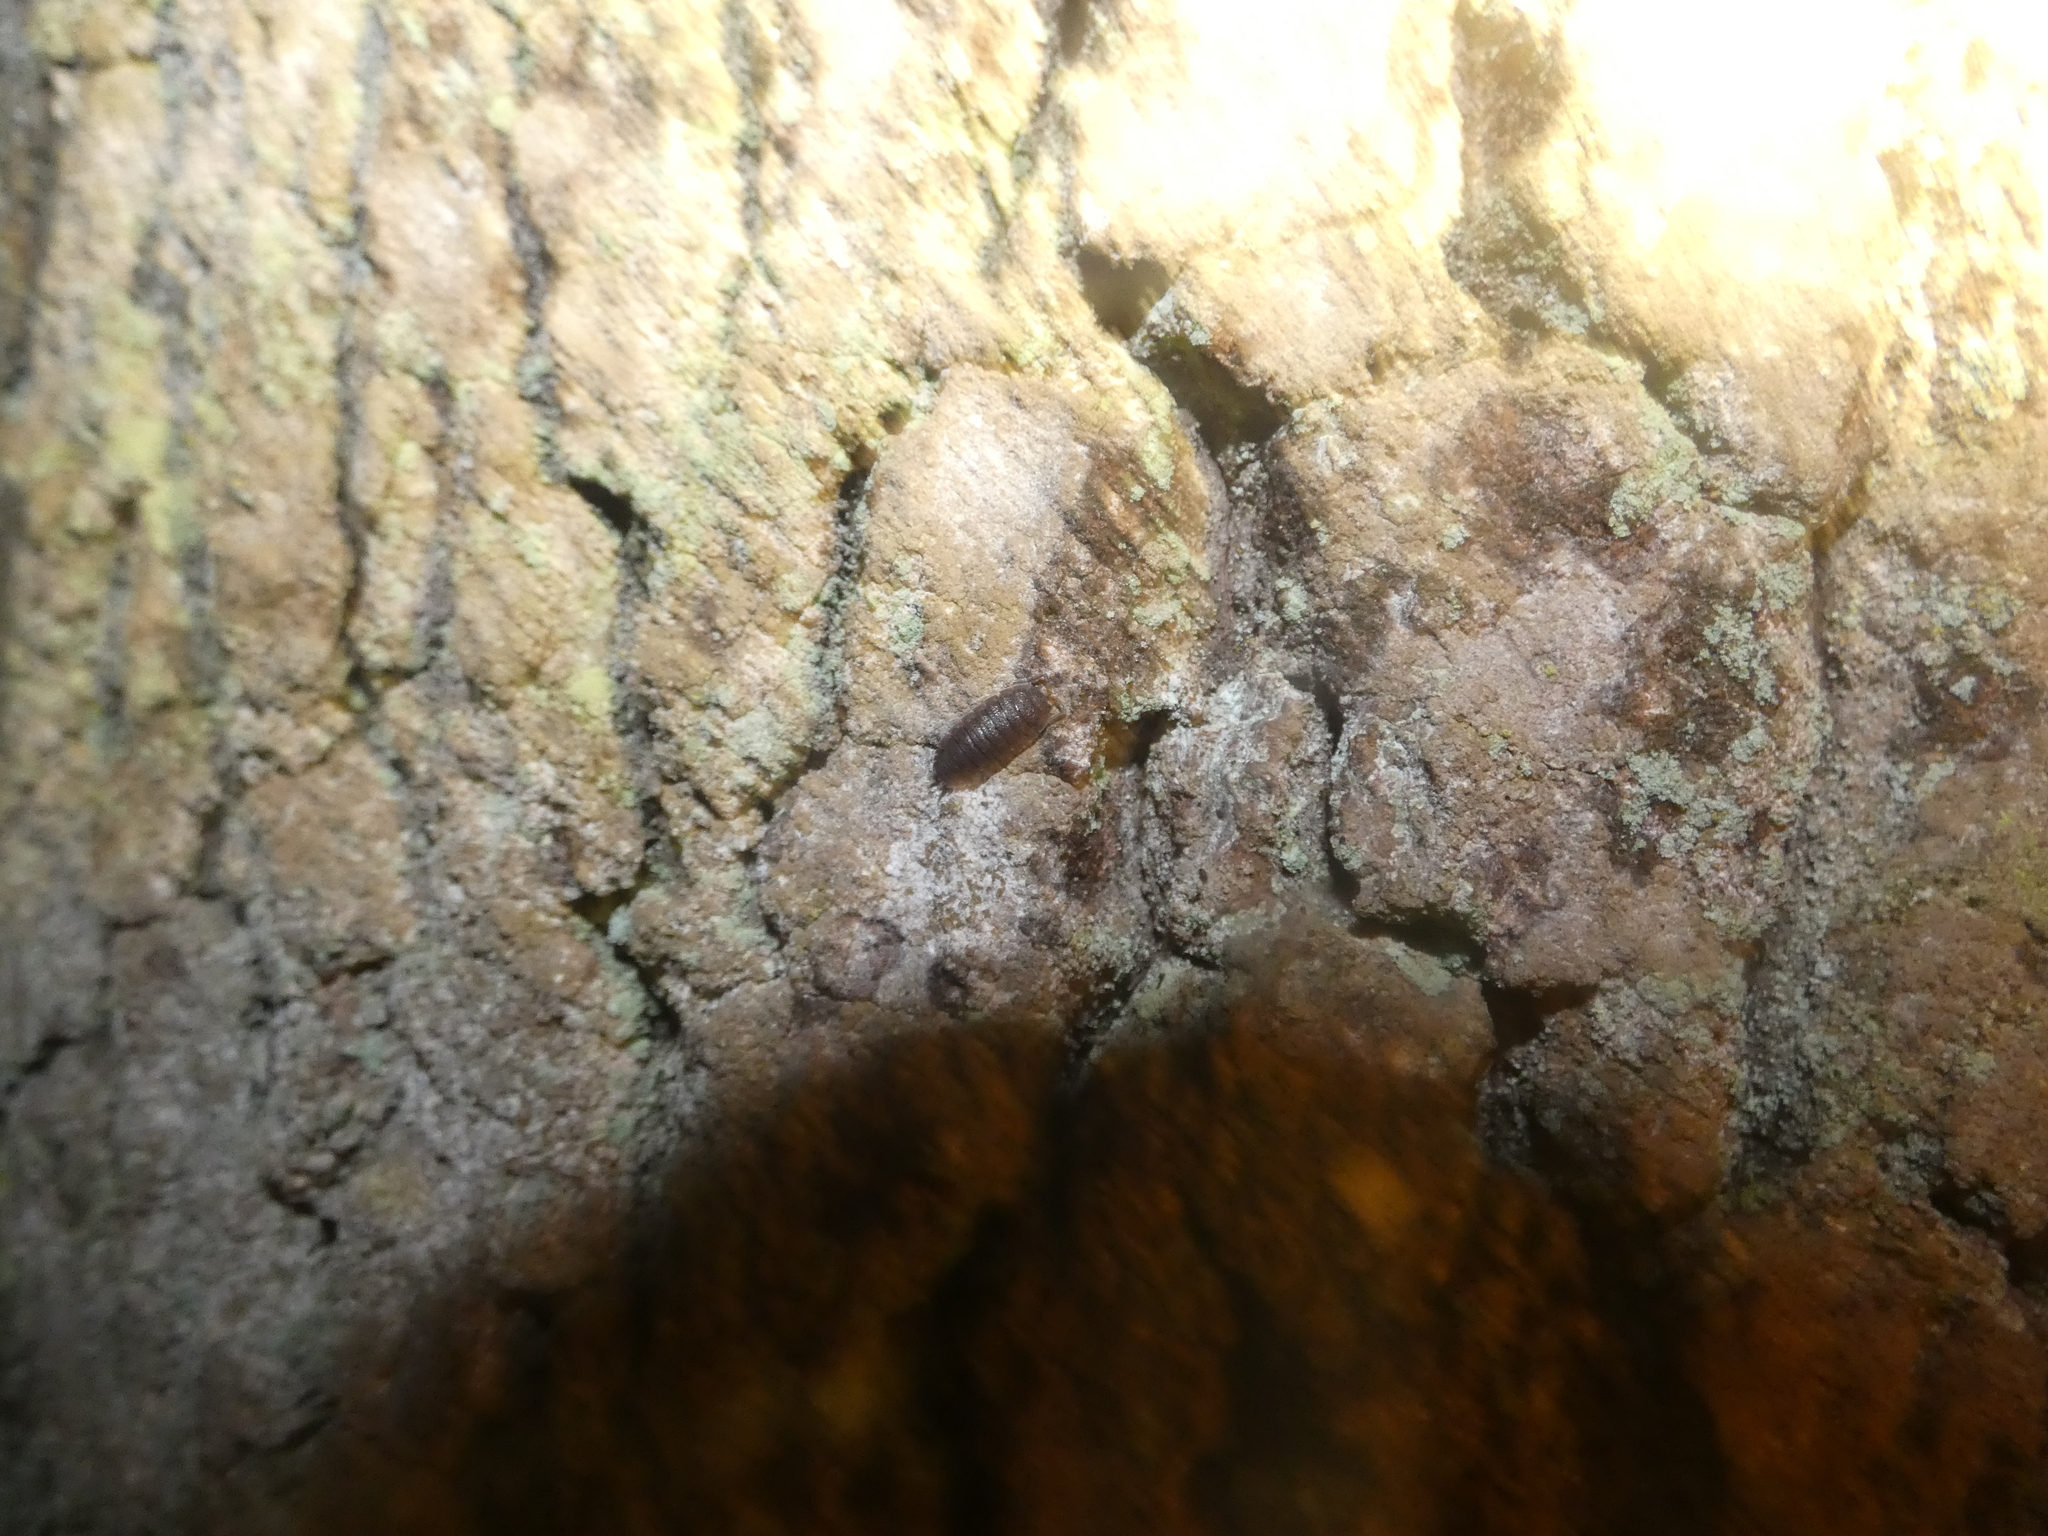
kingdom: Animalia
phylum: Arthropoda
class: Malacostraca
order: Isopoda
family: Porcellionidae
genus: Porcellio
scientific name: Porcellio scaber
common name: Common rough woodlouse
